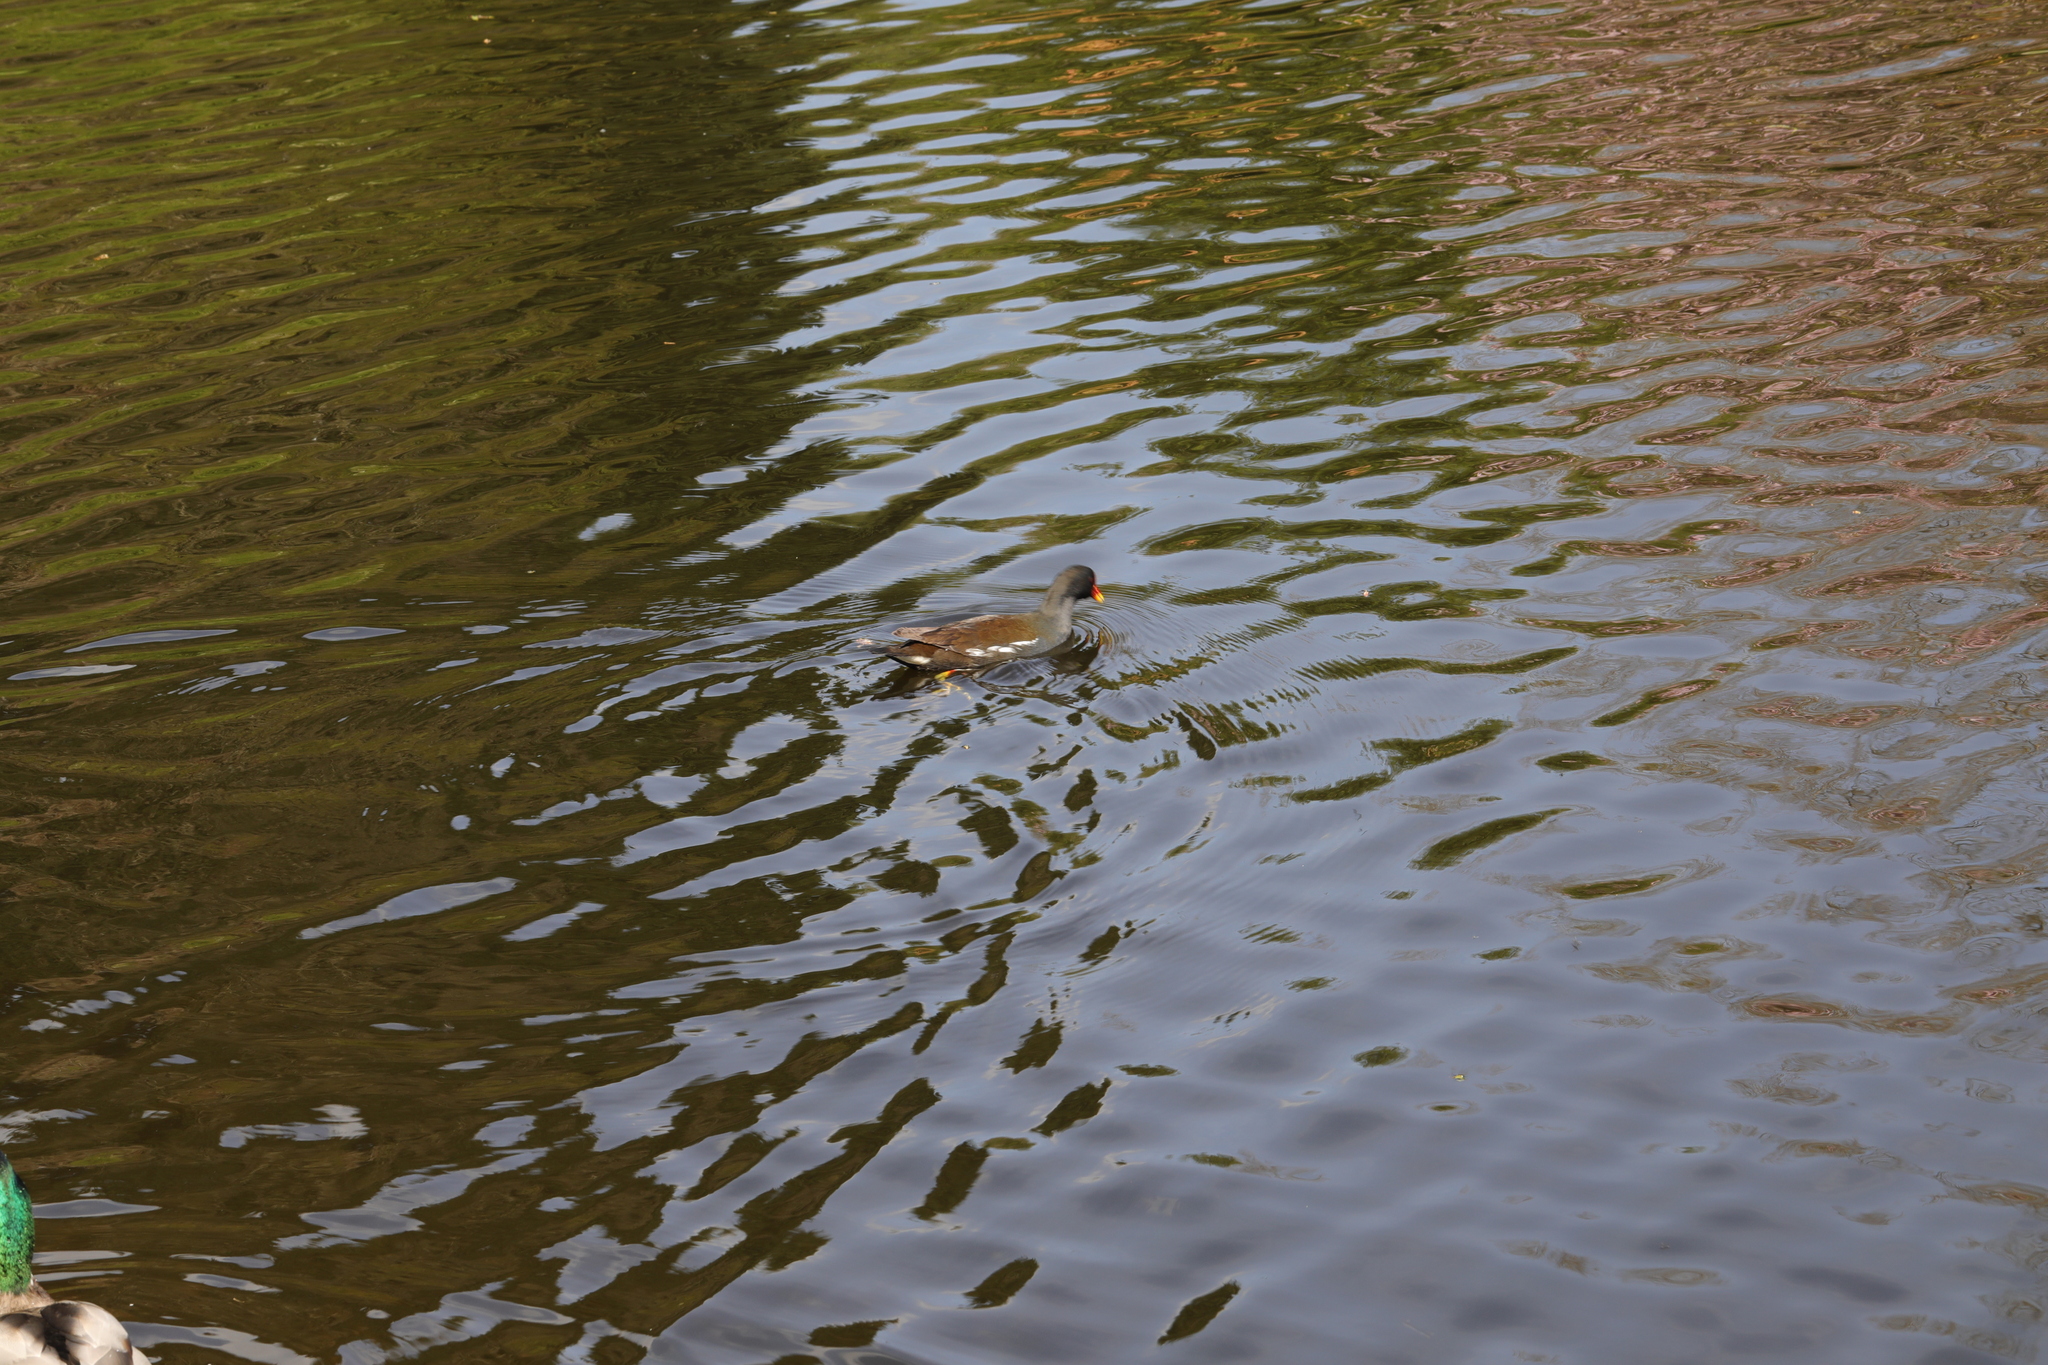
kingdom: Animalia
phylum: Chordata
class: Aves
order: Gruiformes
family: Rallidae
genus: Gallinula
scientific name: Gallinula chloropus
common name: Common moorhen
